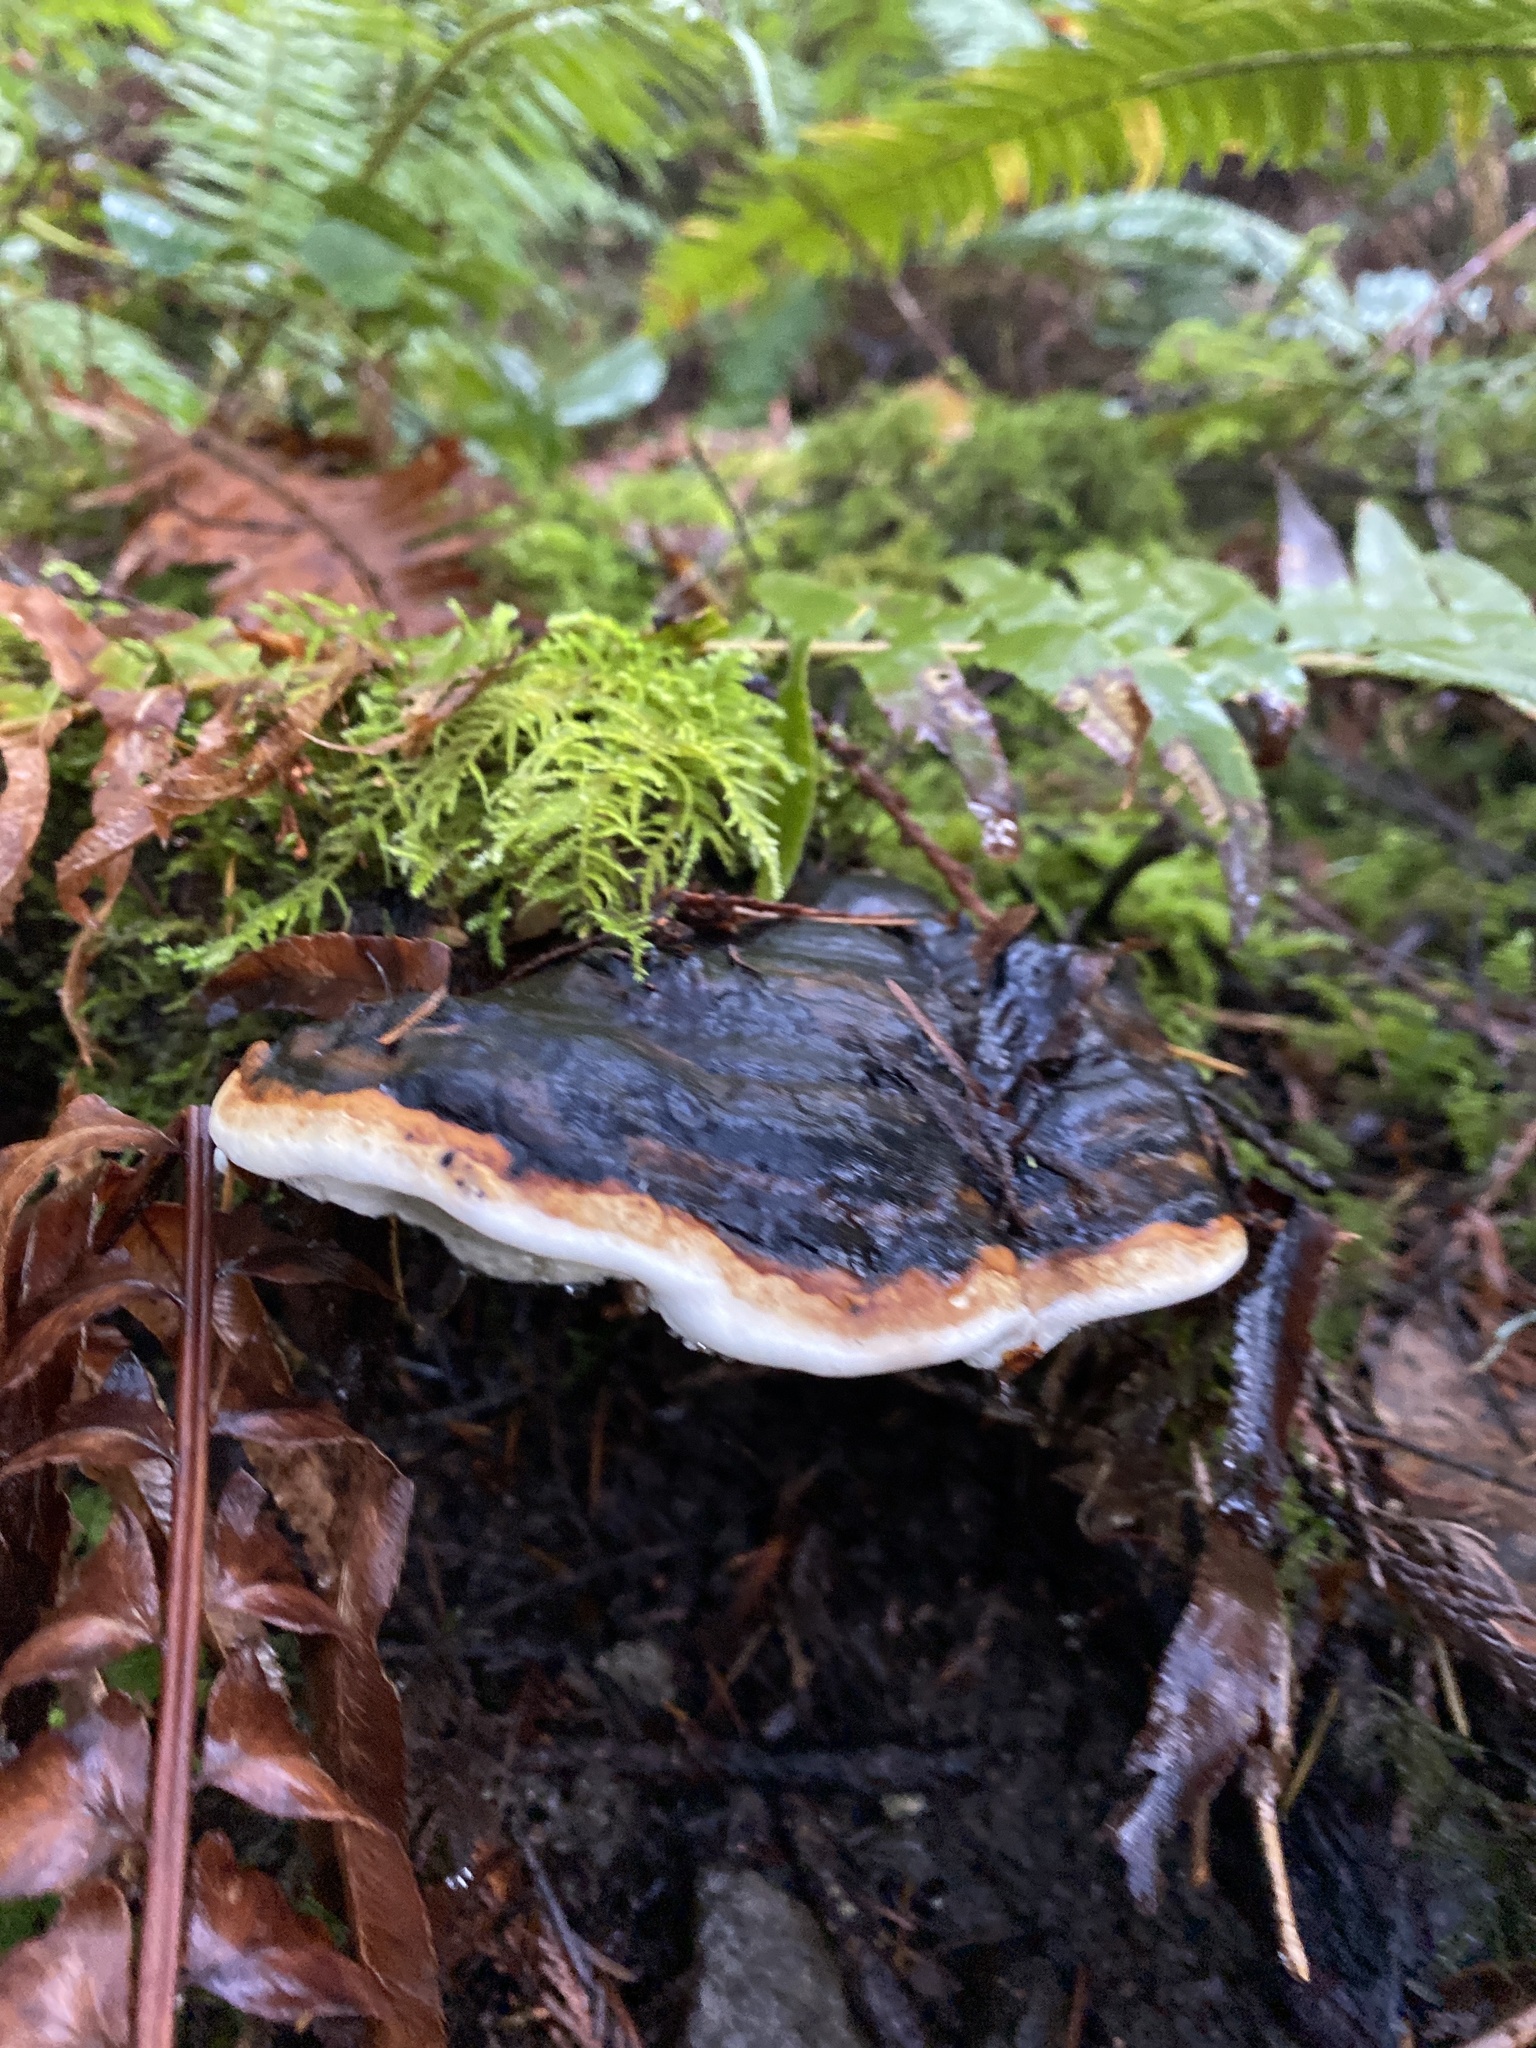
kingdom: Fungi
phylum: Basidiomycota
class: Agaricomycetes
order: Polyporales
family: Fomitopsidaceae
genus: Fomitopsis
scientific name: Fomitopsis mounceae
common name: Northern red belt
